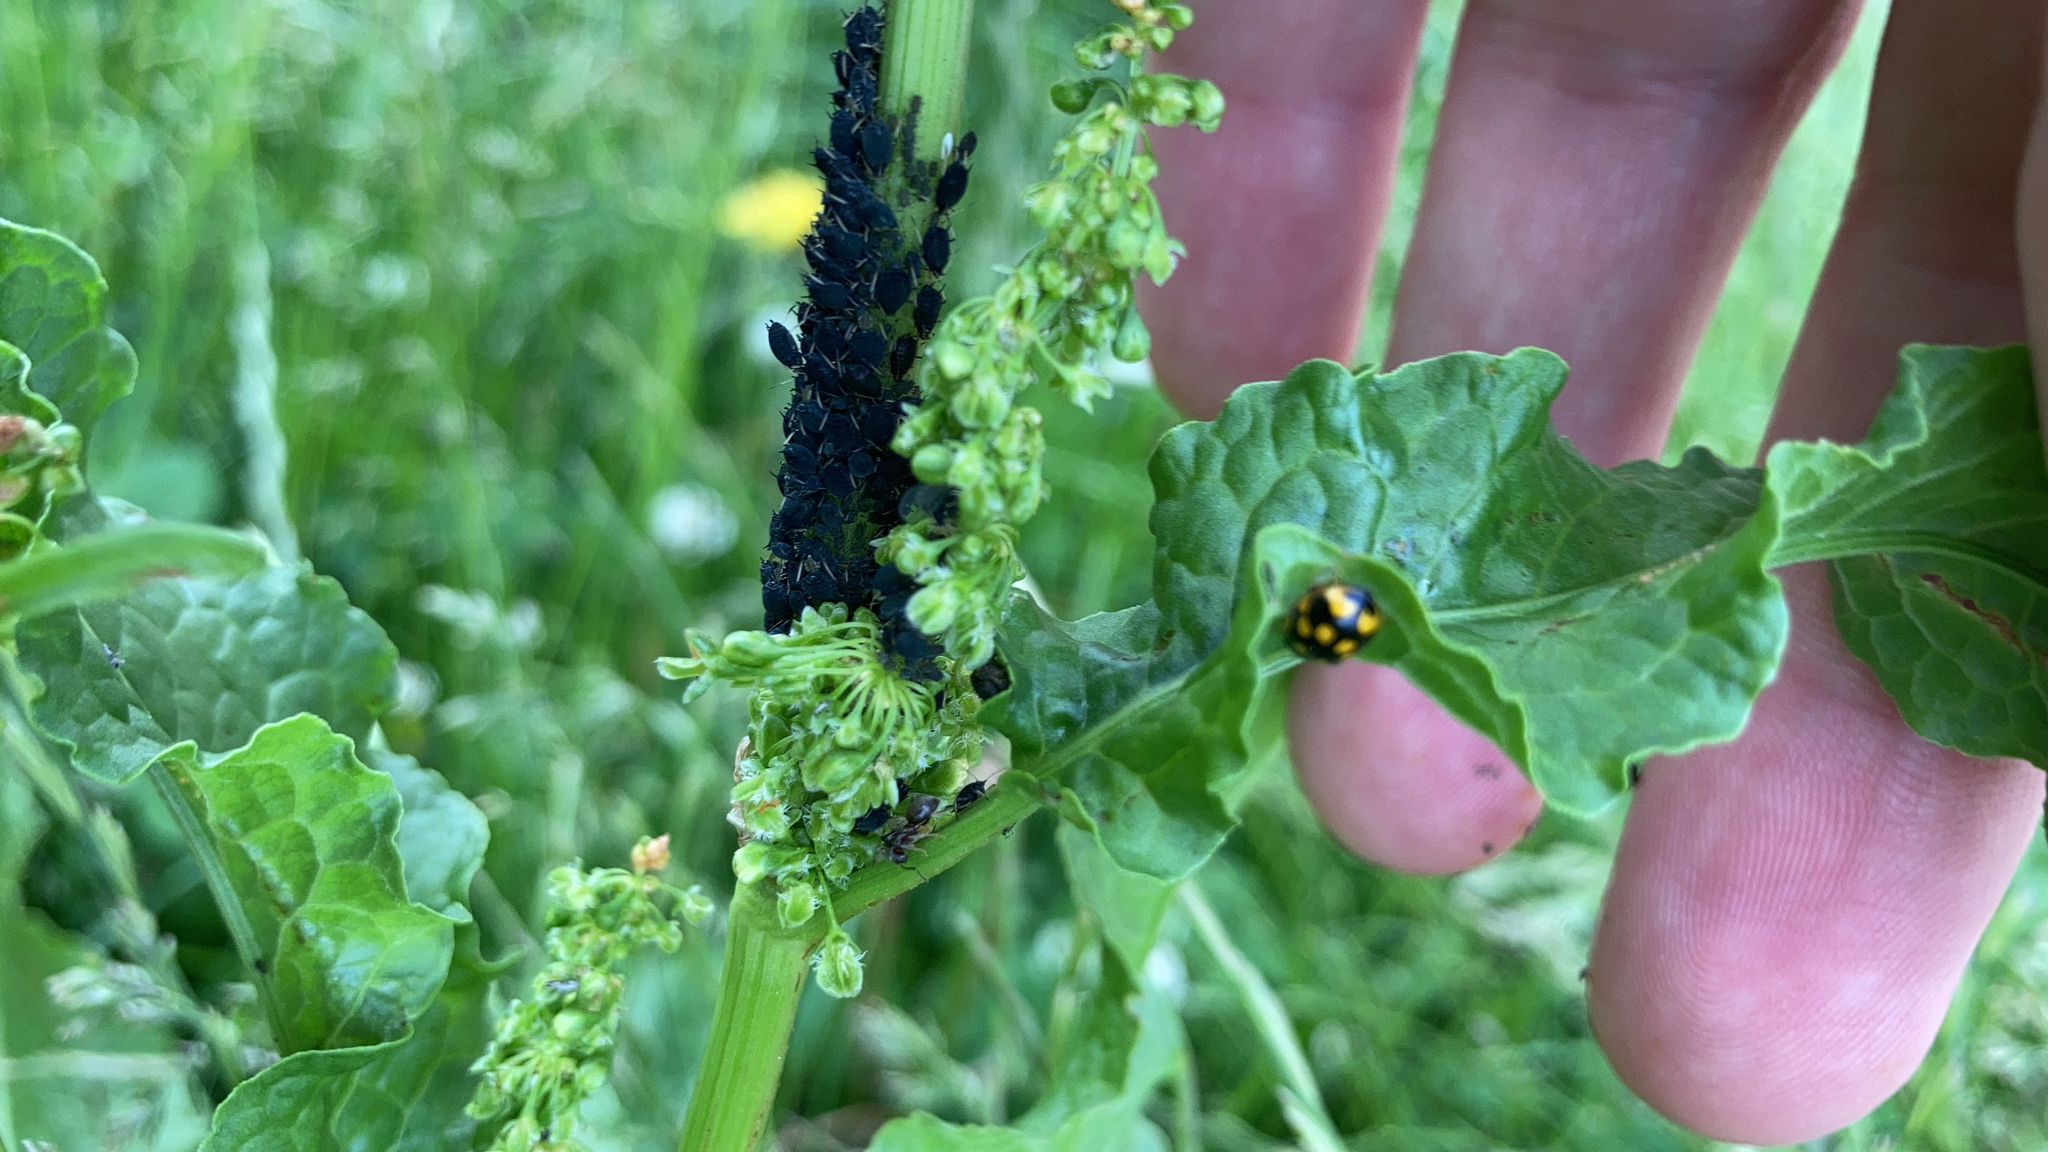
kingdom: Animalia
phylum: Arthropoda
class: Insecta
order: Coleoptera
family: Coccinellidae
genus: Propylaea
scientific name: Propylaea quatuordecimpunctata
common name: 14-spotted ladybird beetle
